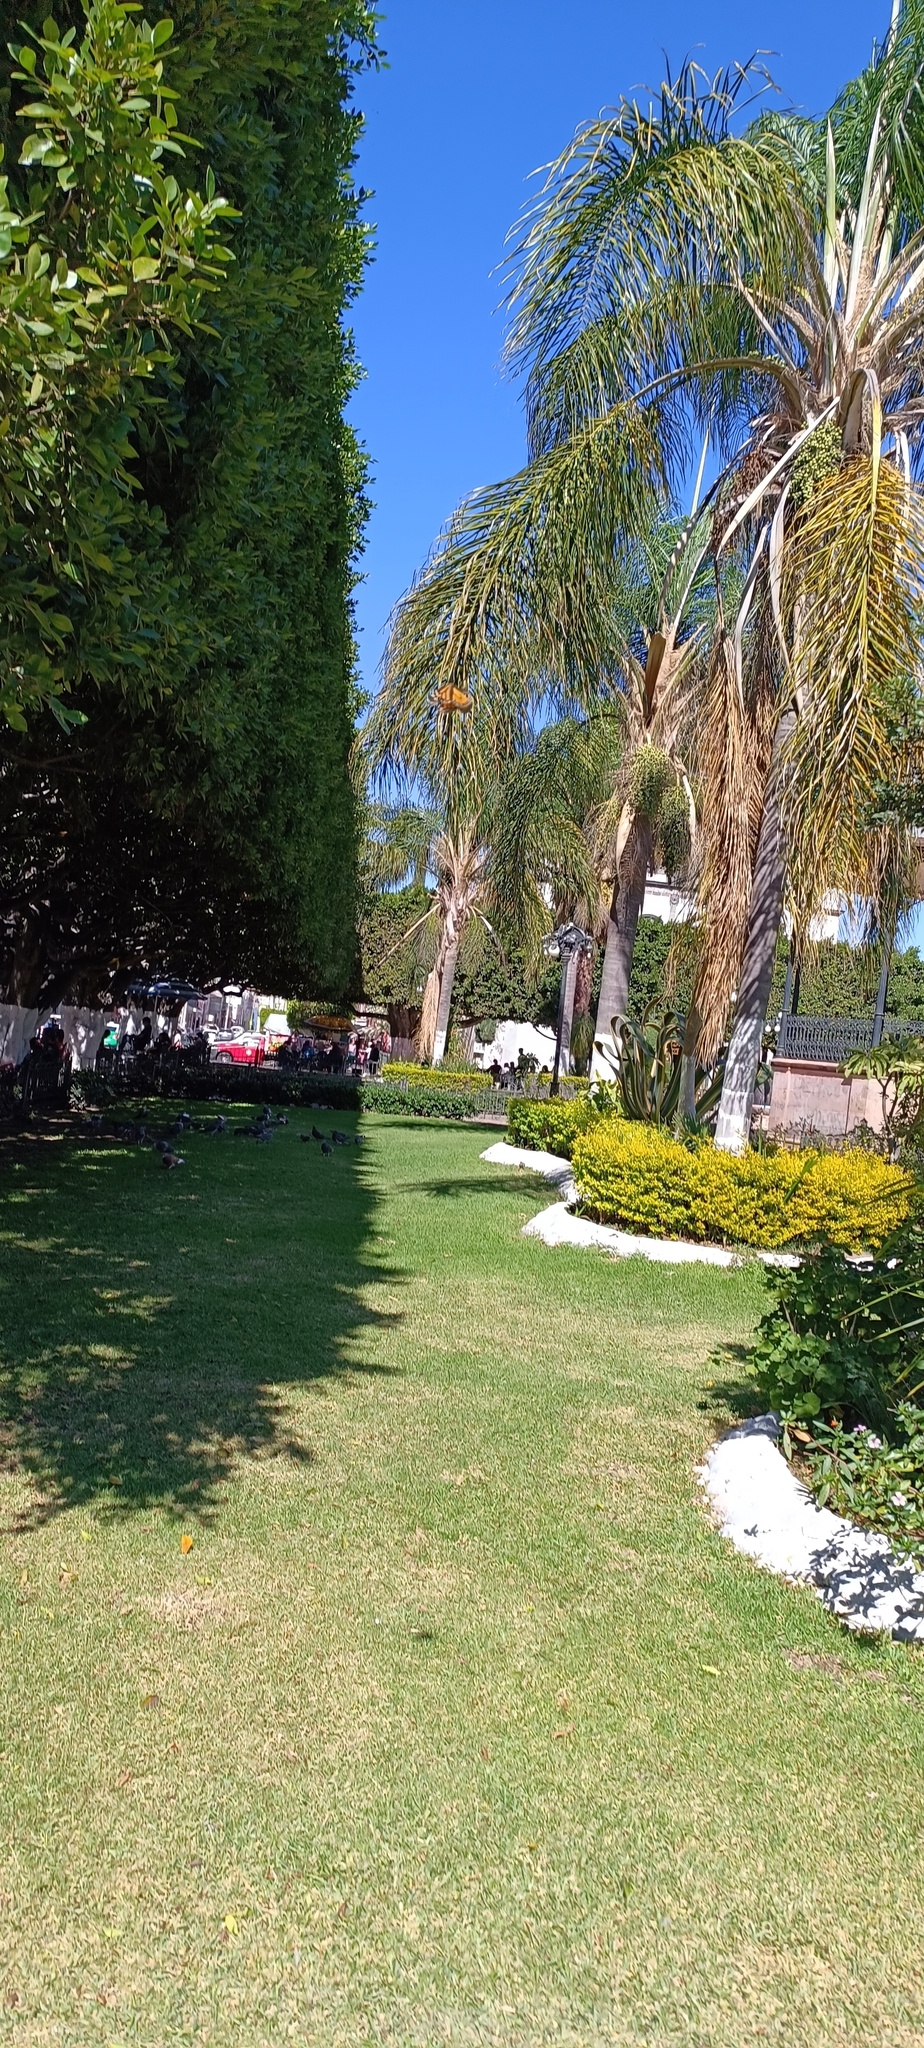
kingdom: Animalia
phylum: Arthropoda
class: Insecta
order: Lepidoptera
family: Nymphalidae
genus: Danaus
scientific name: Danaus plexippus
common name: Monarch
